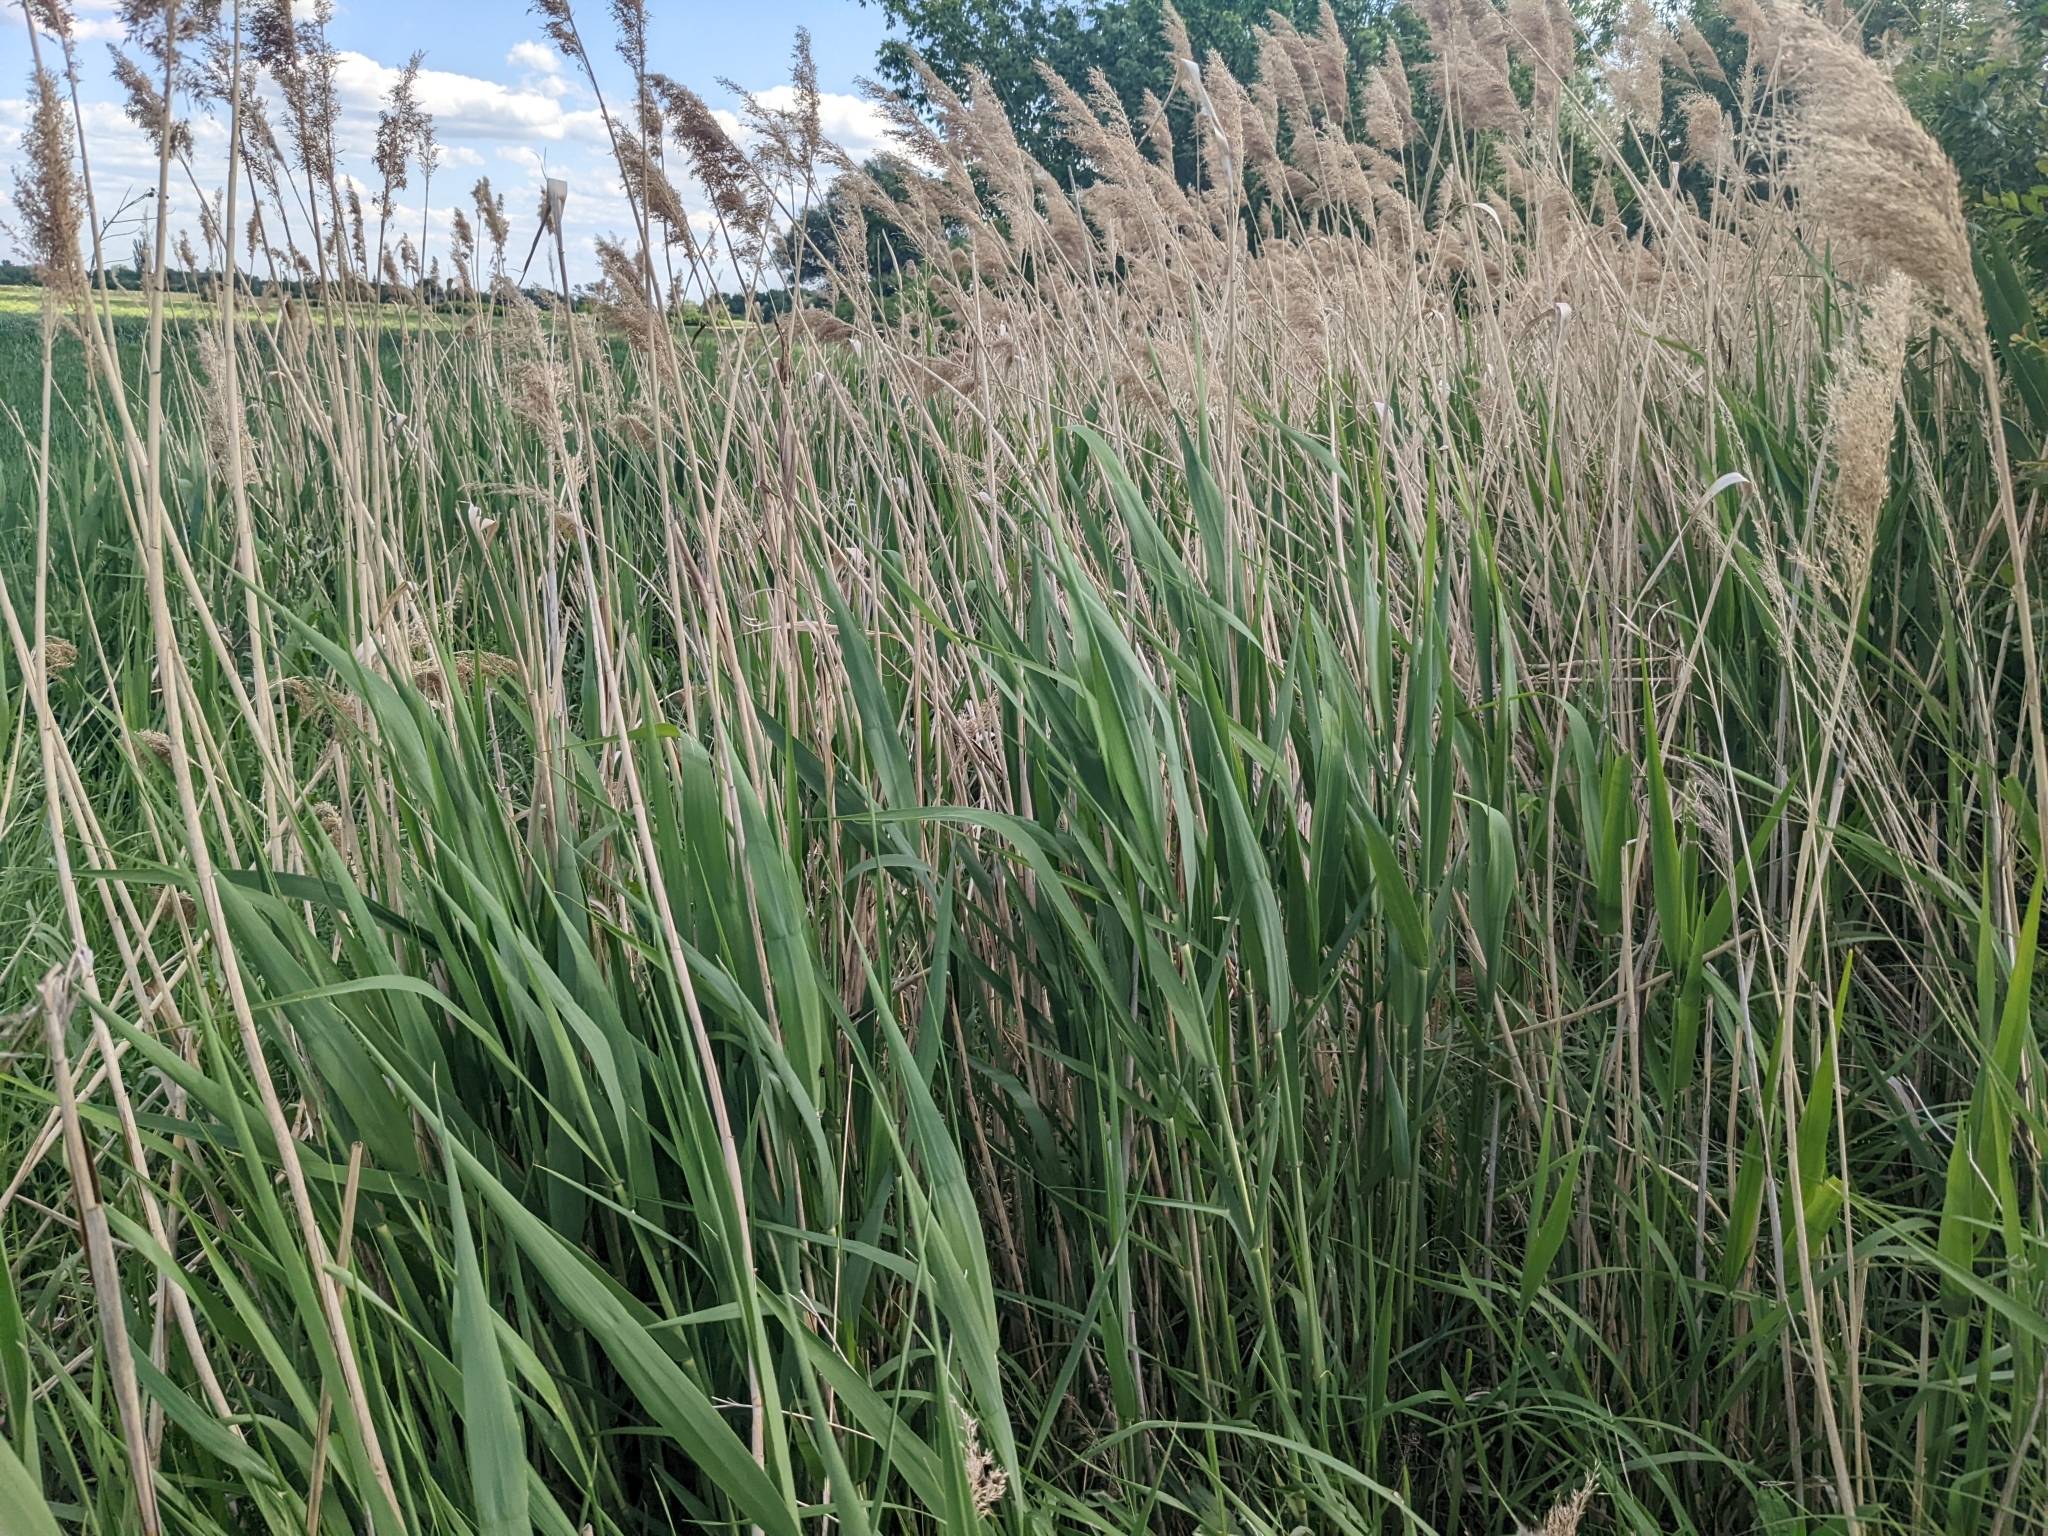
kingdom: Plantae
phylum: Tracheophyta
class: Liliopsida
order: Poales
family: Poaceae
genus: Phragmites
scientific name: Phragmites australis
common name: Common reed
